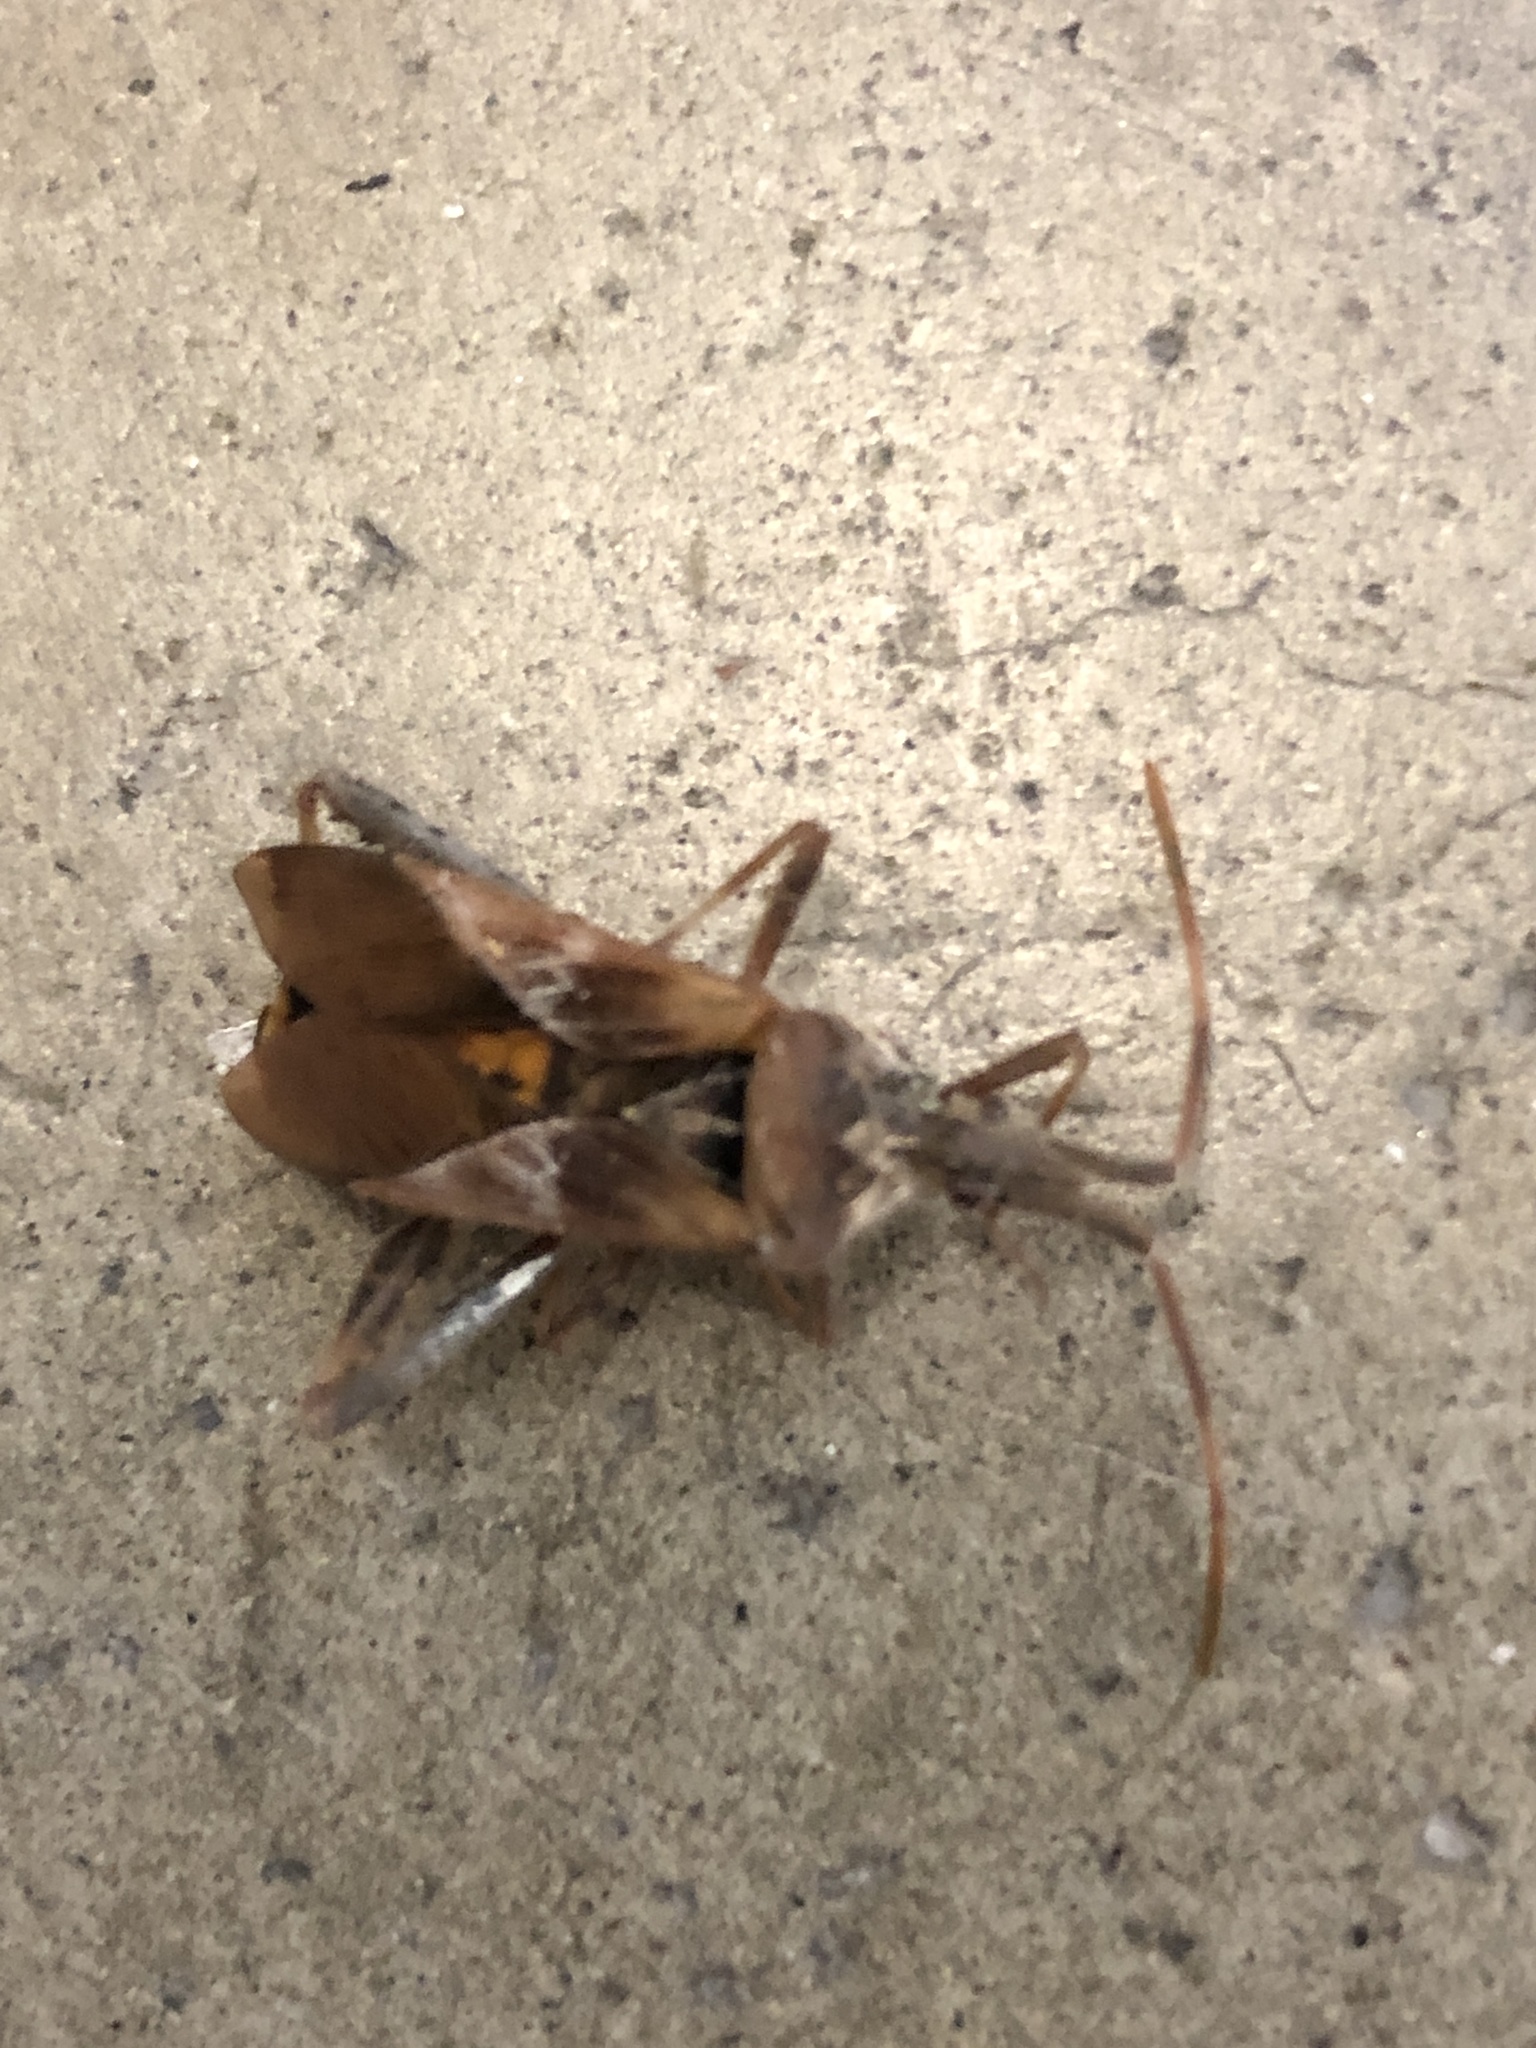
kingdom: Animalia
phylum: Arthropoda
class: Insecta
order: Hemiptera
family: Coreidae
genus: Leptoglossus
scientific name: Leptoglossus occidentalis
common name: Western conifer-seed bug
